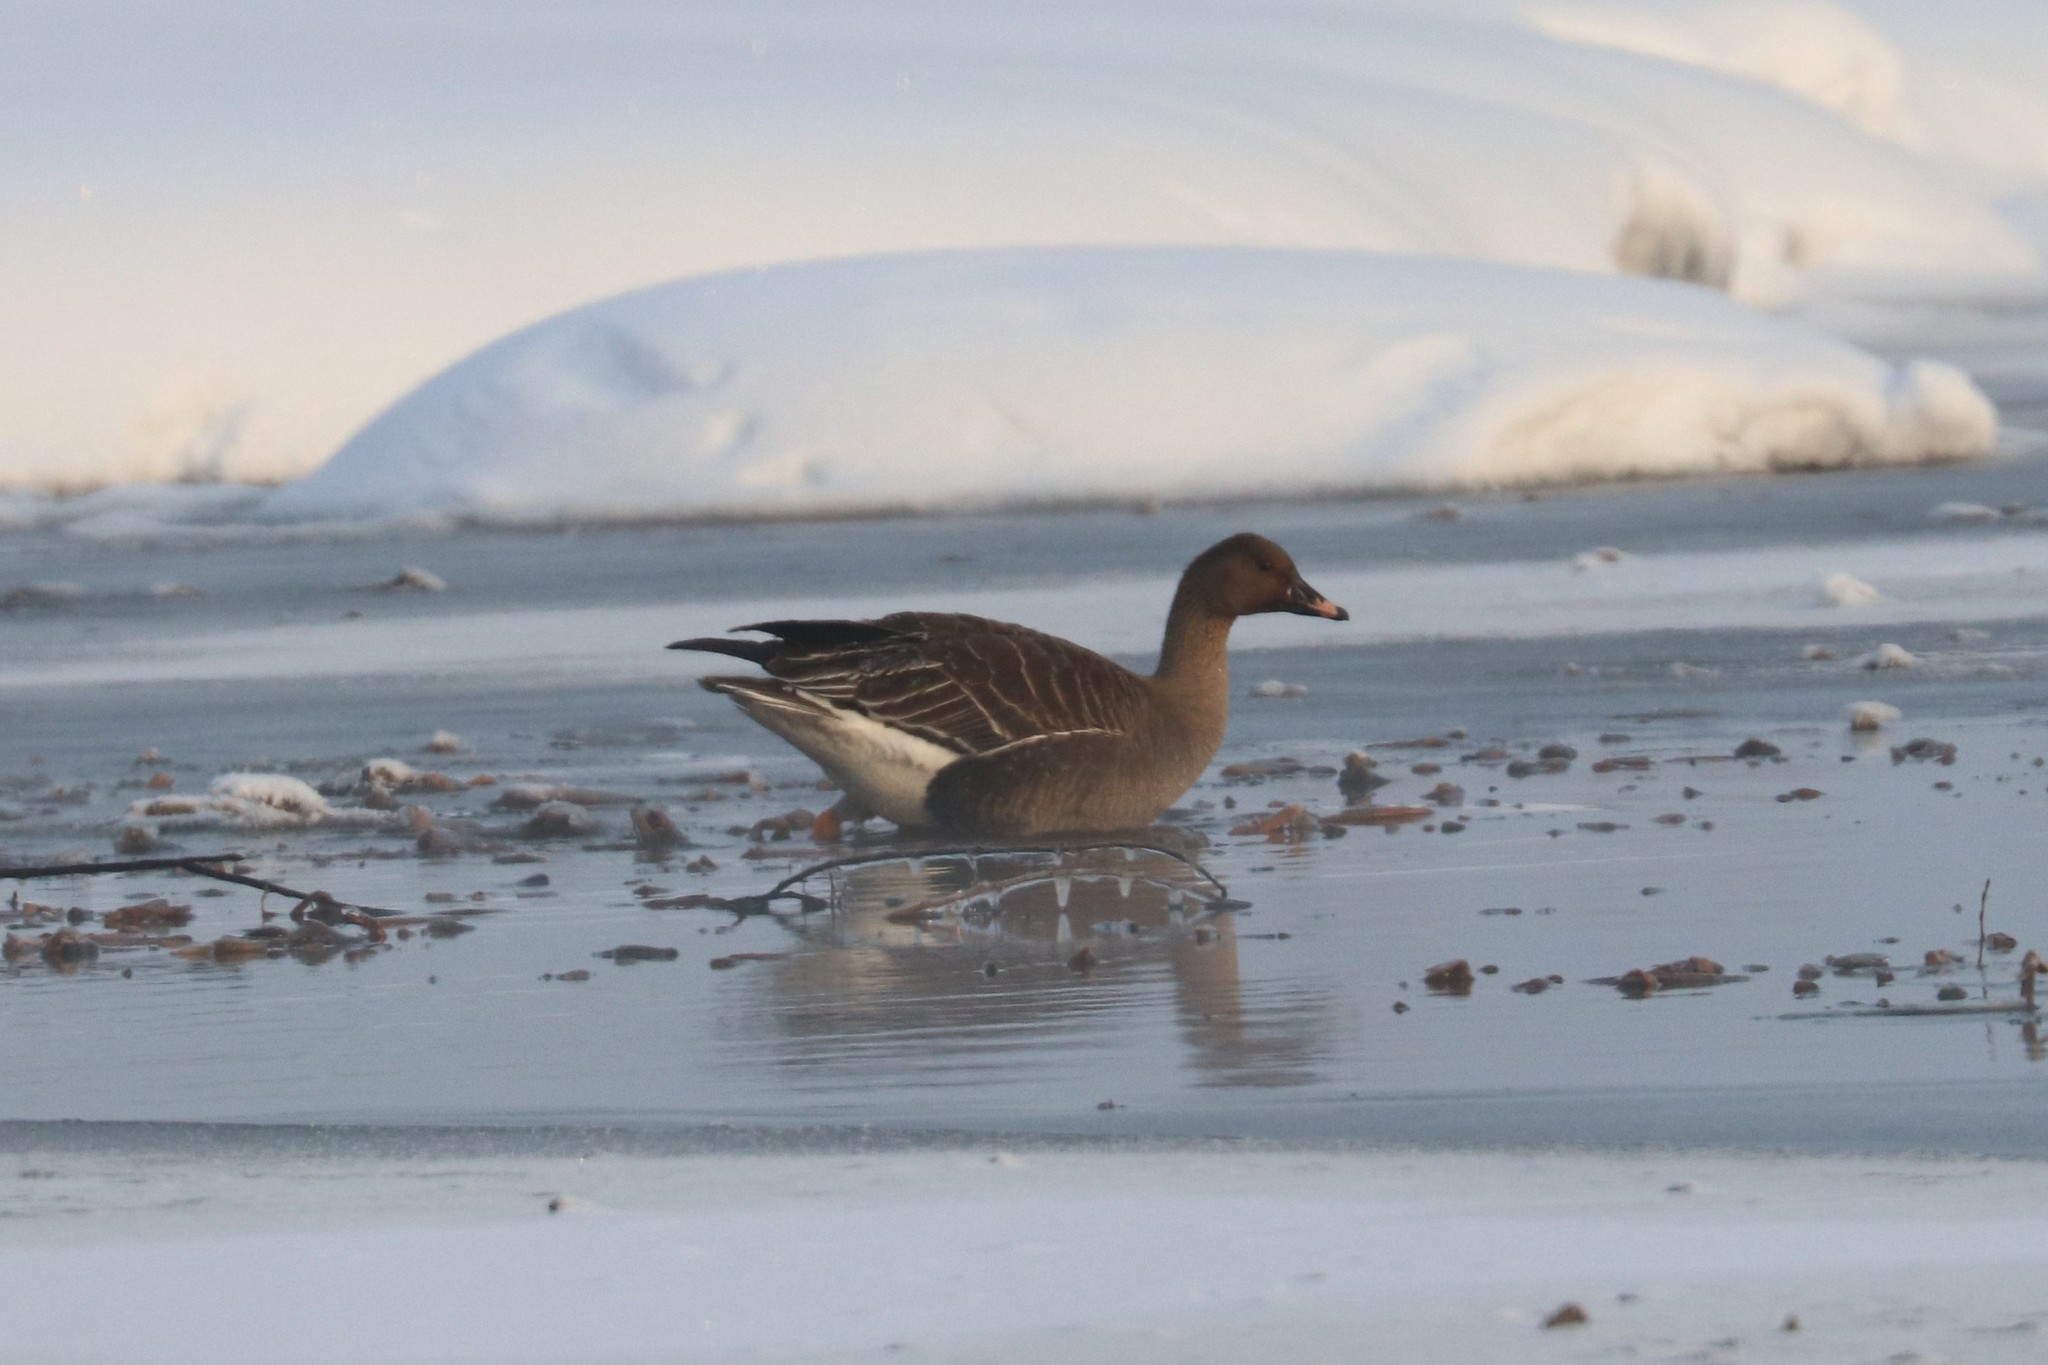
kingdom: Animalia
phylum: Chordata
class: Aves
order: Anseriformes
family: Anatidae
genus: Anser
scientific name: Anser fabalis
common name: Bean goose
